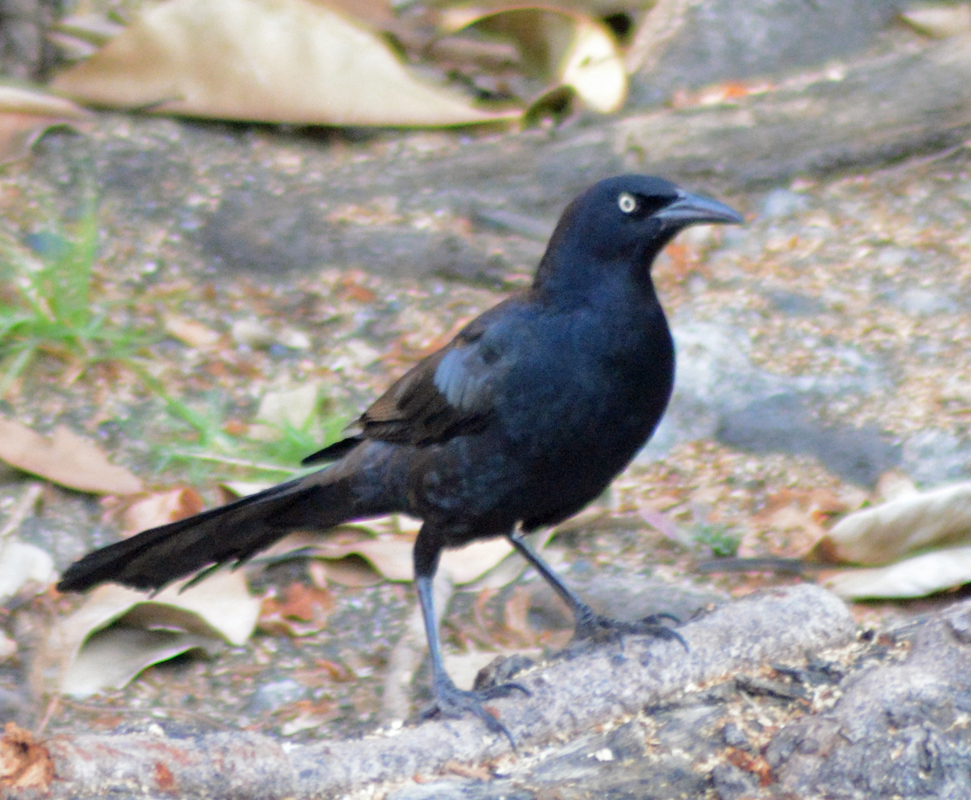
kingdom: Animalia
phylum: Chordata
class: Aves
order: Passeriformes
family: Icteridae
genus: Quiscalus
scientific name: Quiscalus mexicanus
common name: Great-tailed grackle
